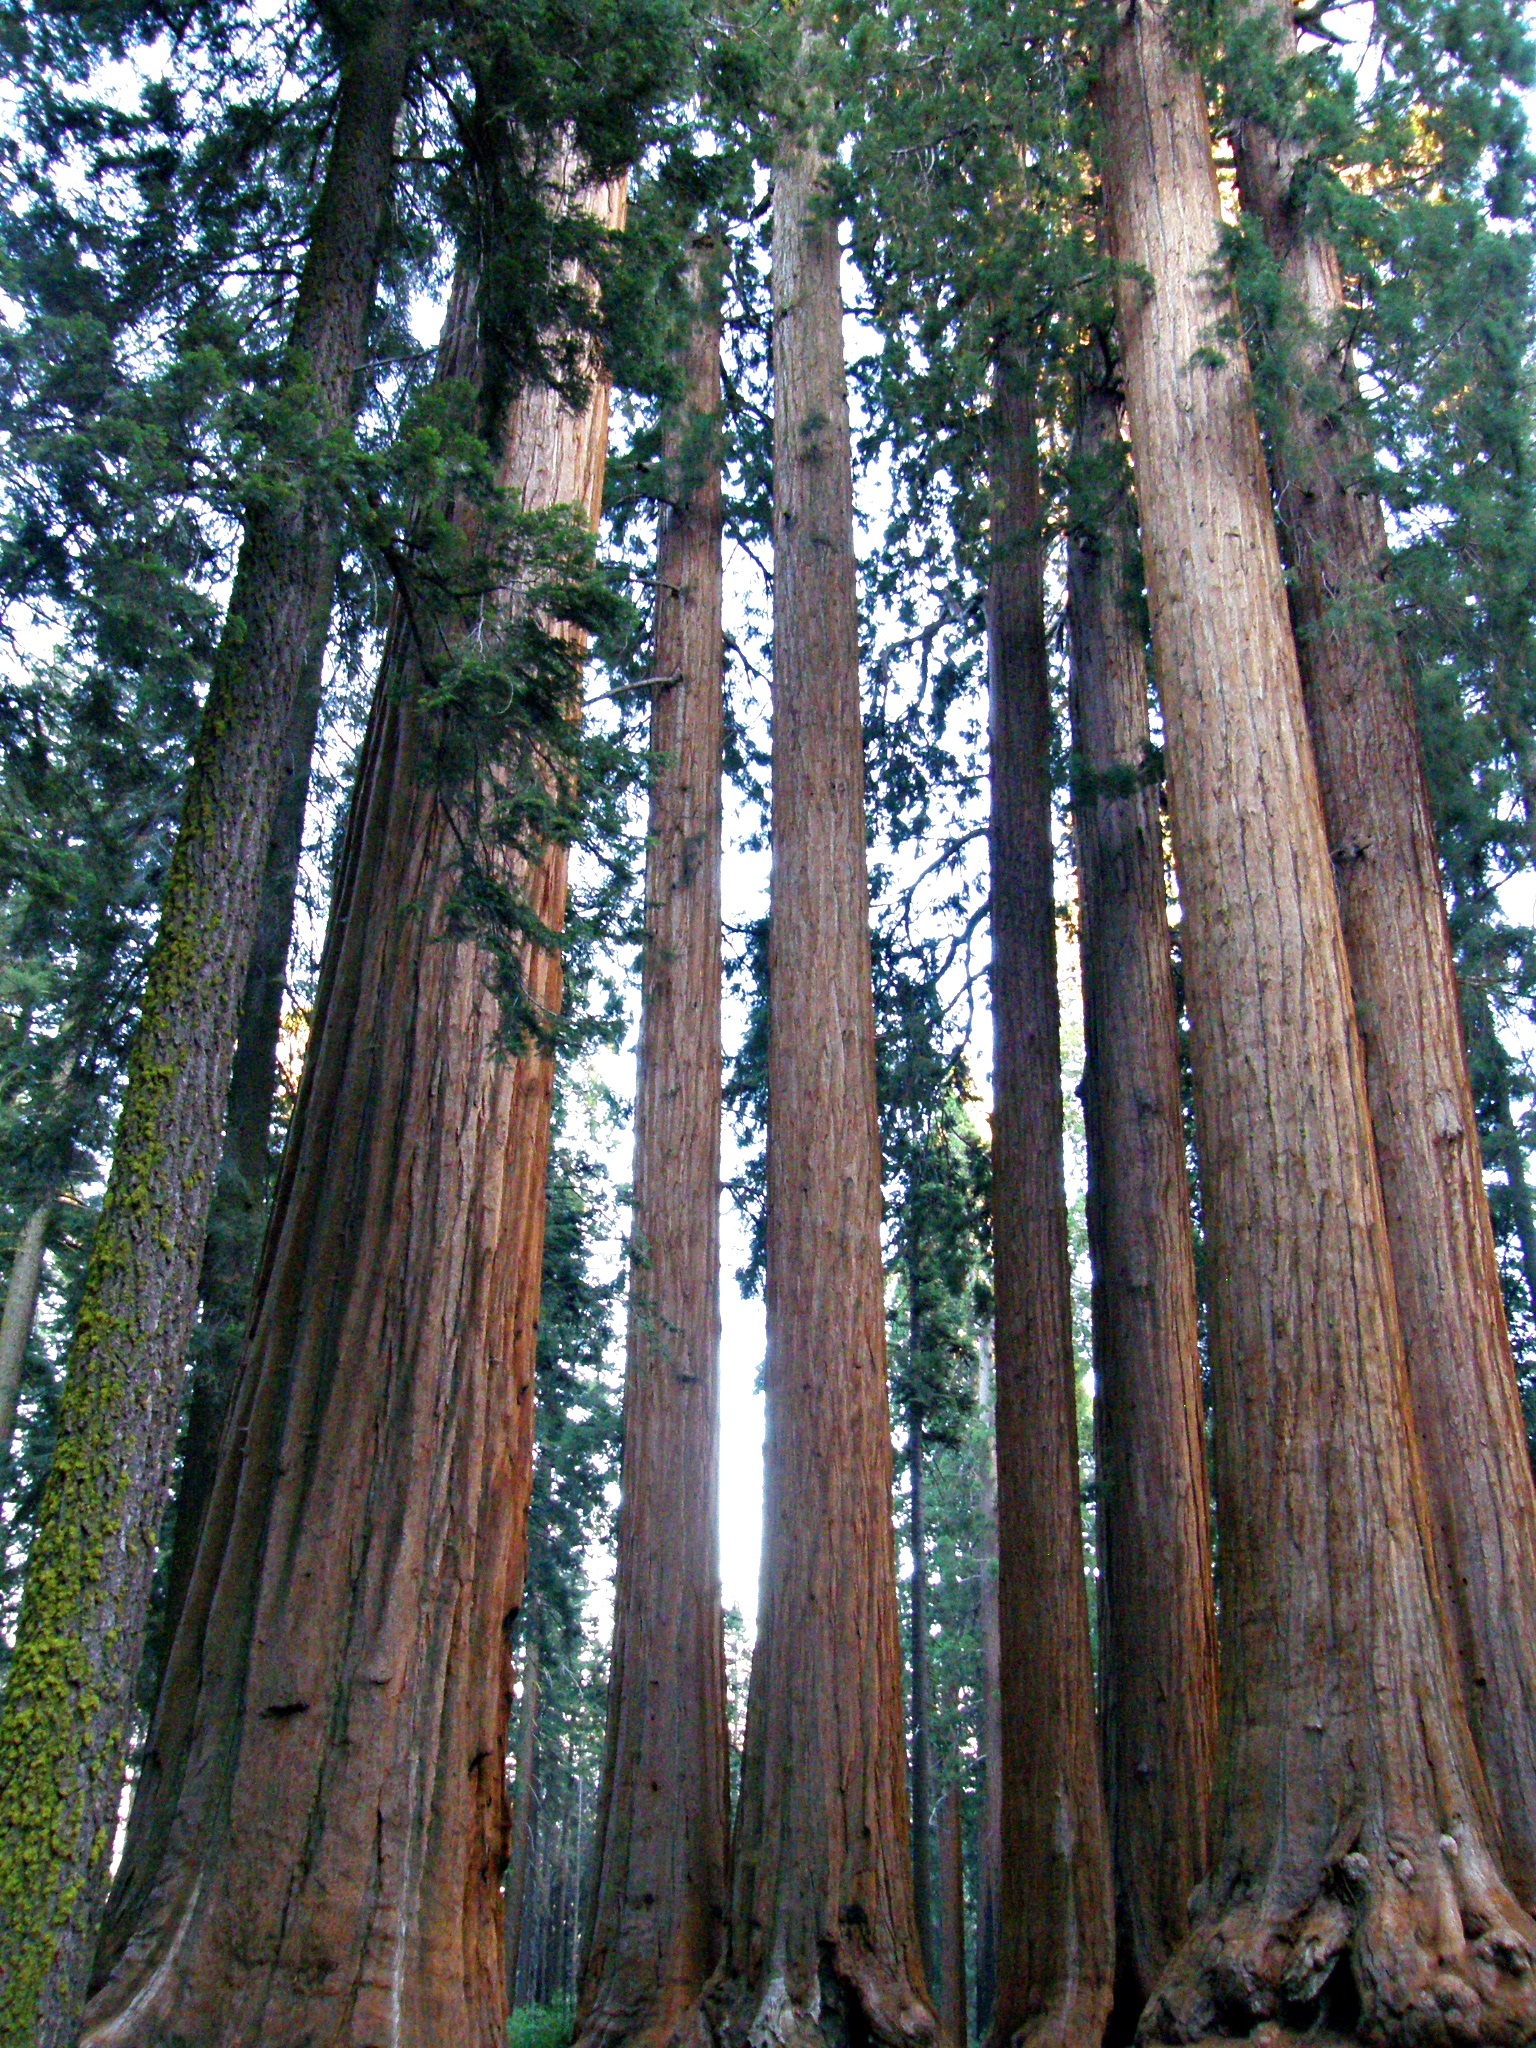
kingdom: Plantae
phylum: Tracheophyta
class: Pinopsida
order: Pinales
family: Cupressaceae
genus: Sequoiadendron
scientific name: Sequoiadendron giganteum
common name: Wellingtonia
